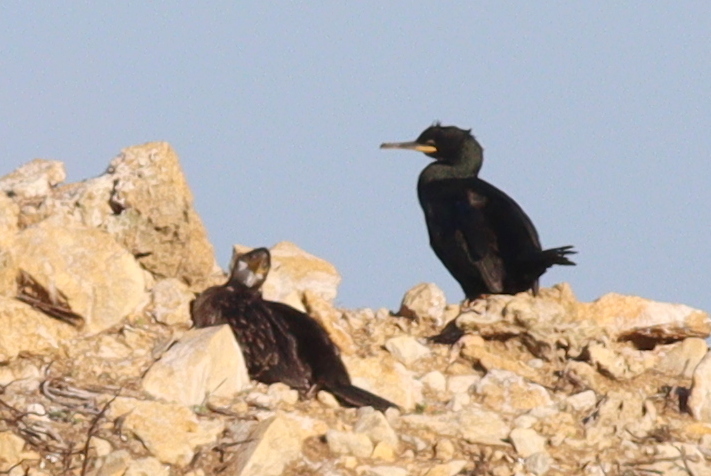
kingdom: Animalia
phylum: Chordata
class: Aves
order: Suliformes
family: Phalacrocoracidae
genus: Phalacrocorax
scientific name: Phalacrocorax aristotelis
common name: European shag
